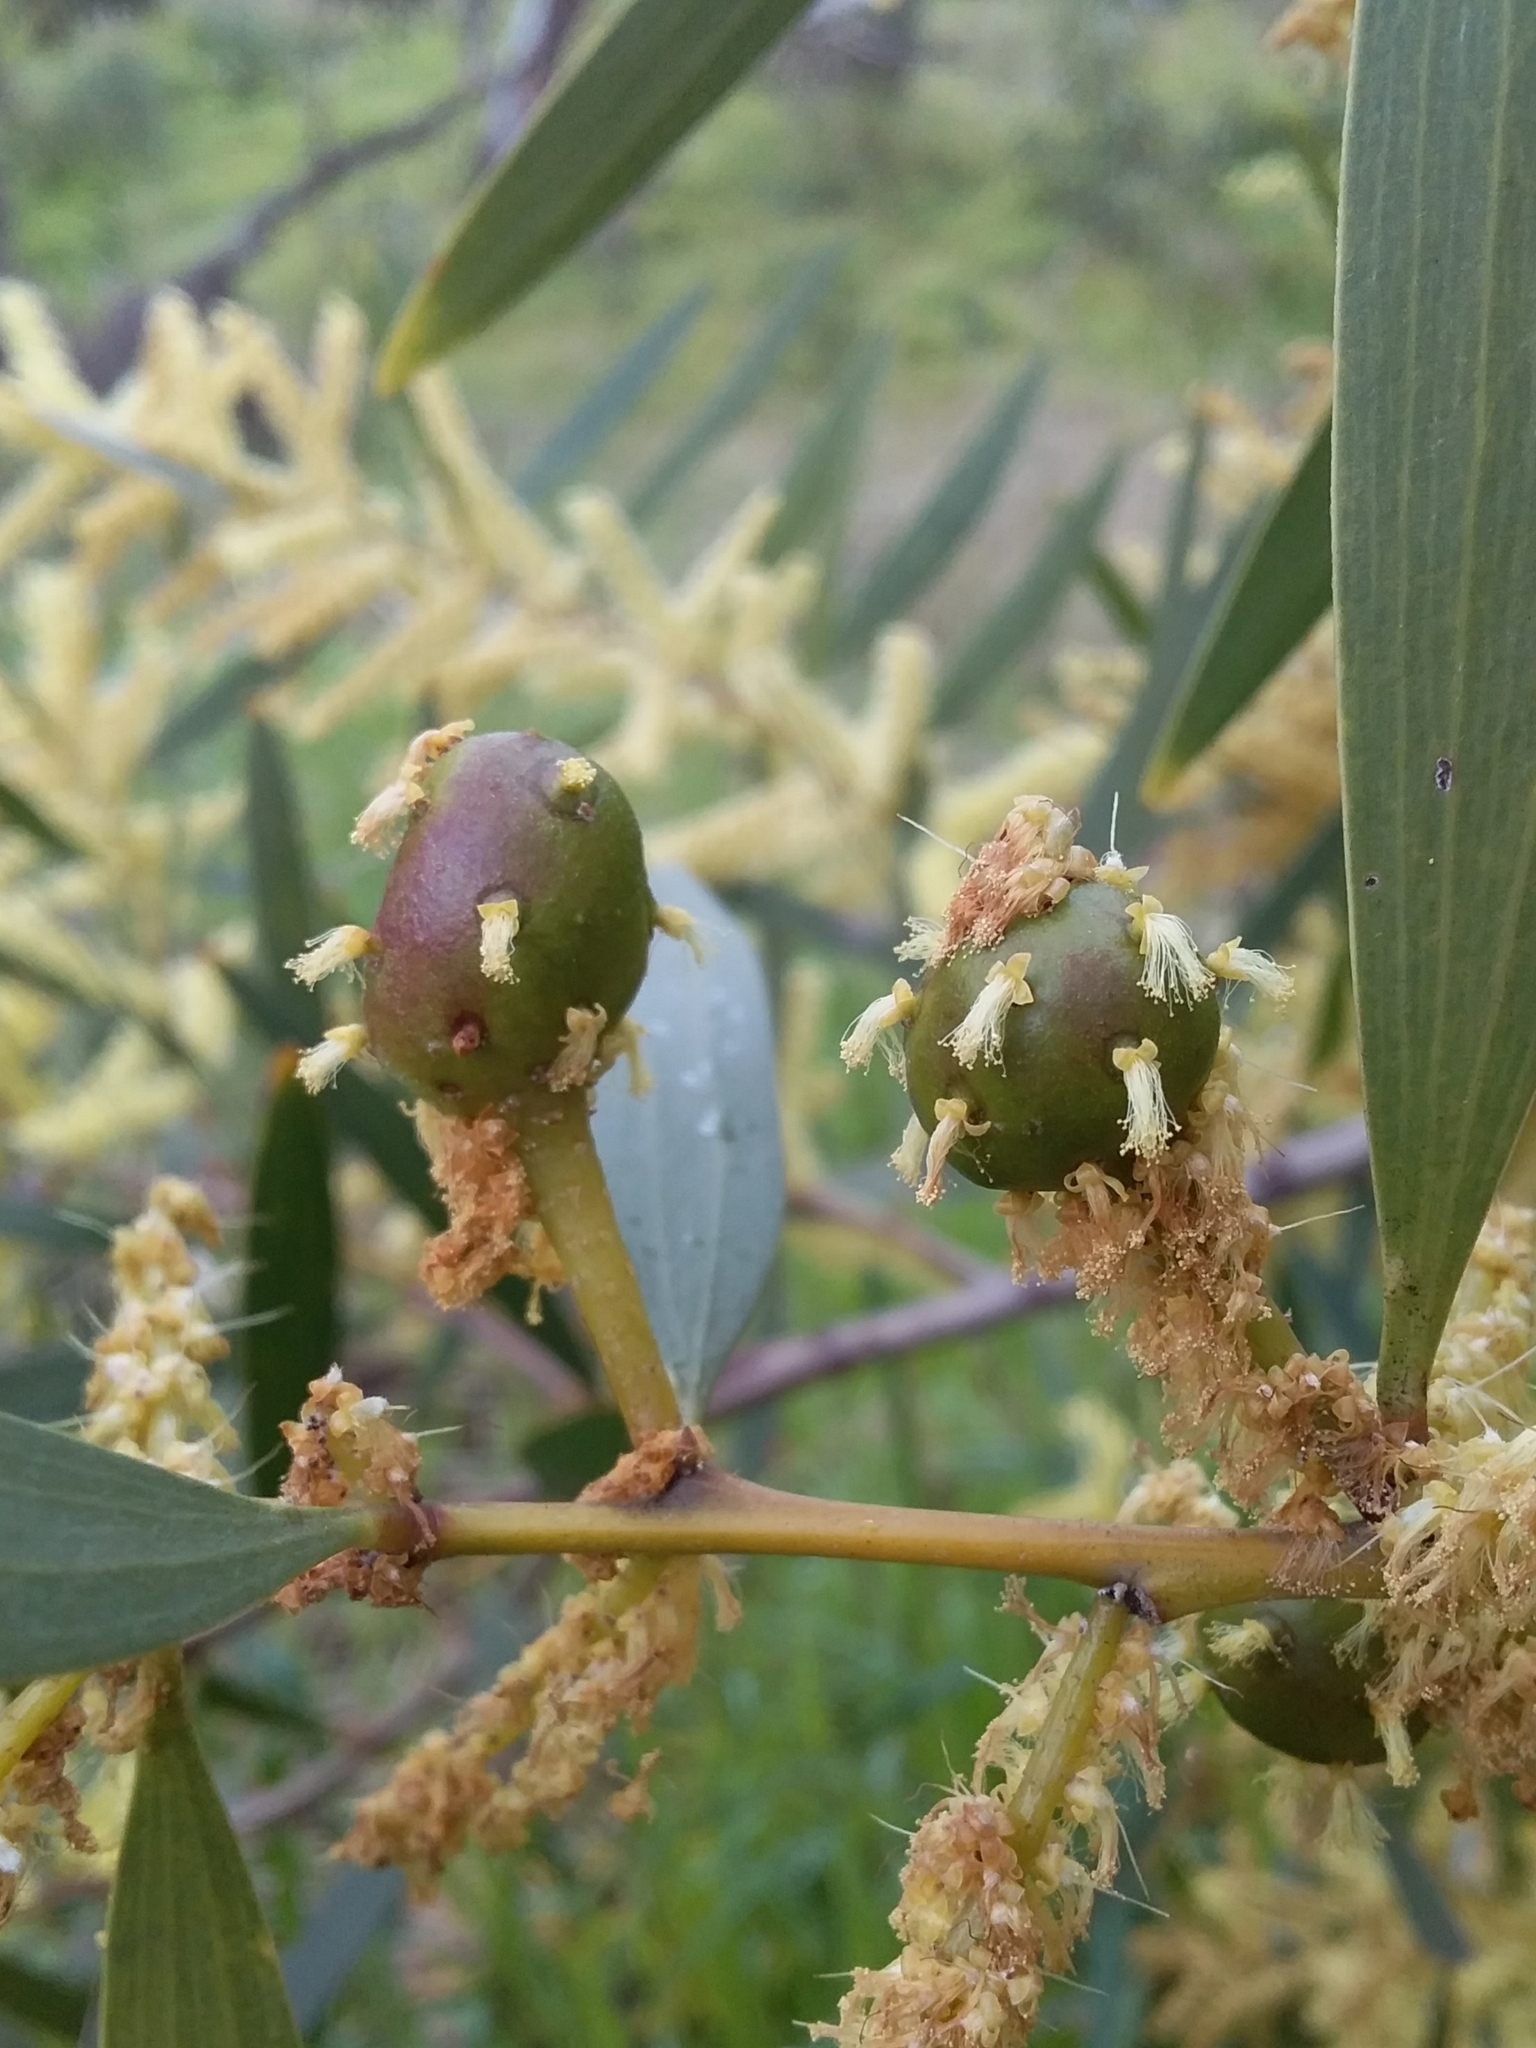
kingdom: Animalia
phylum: Arthropoda
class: Insecta
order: Hymenoptera
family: Pteromalidae
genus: Trichilogaster
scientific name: Trichilogaster acaciaelongifoliae
